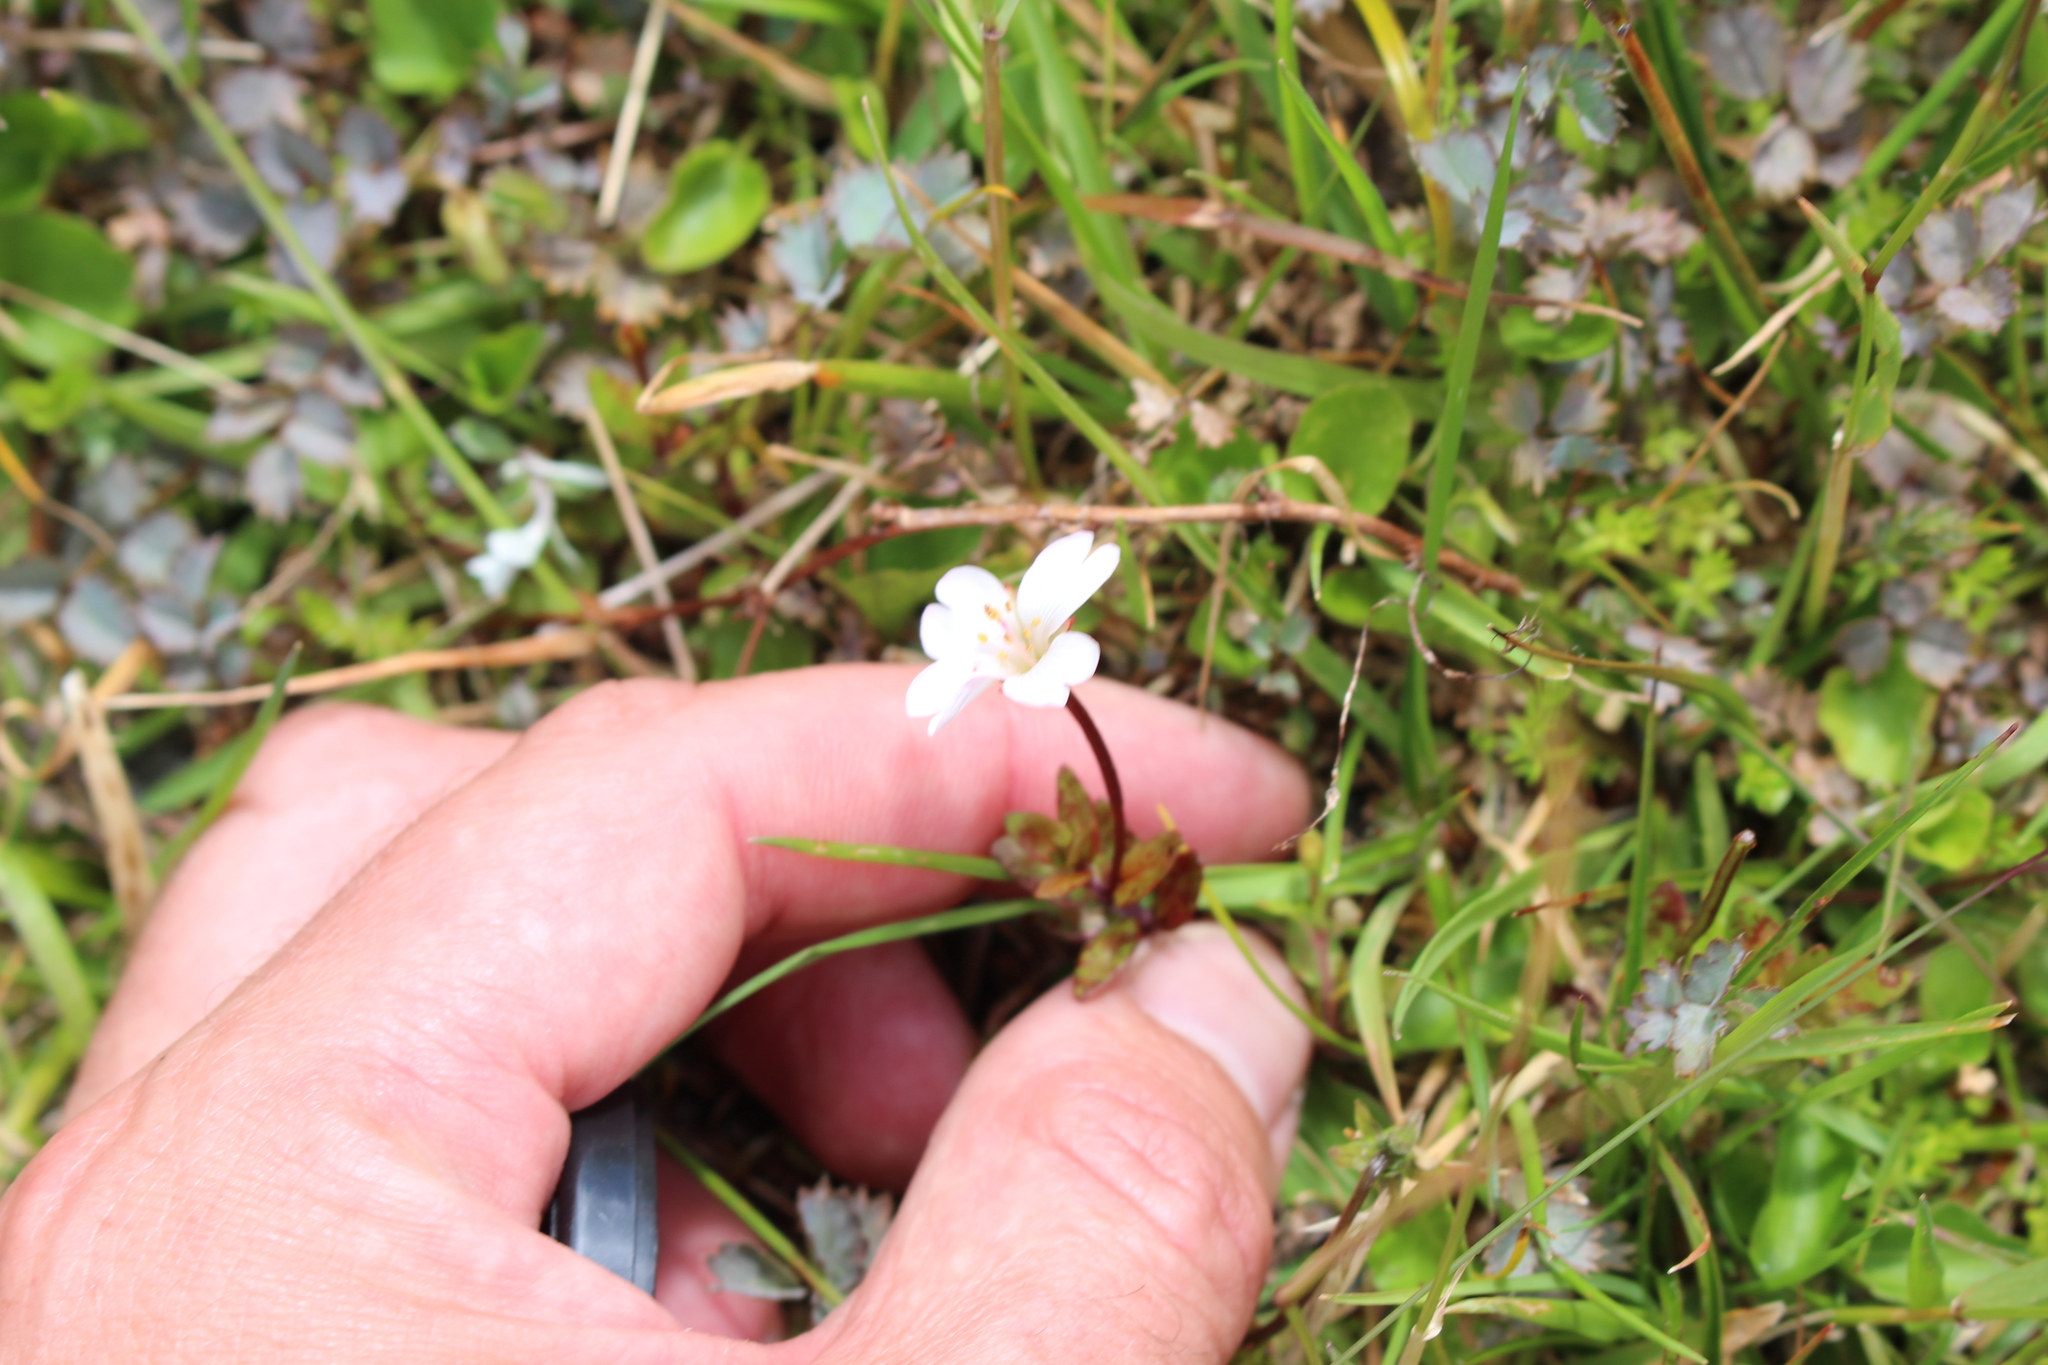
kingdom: Plantae
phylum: Tracheophyta
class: Magnoliopsida
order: Myrtales
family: Onagraceae
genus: Epilobium
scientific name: Epilobium macropus
